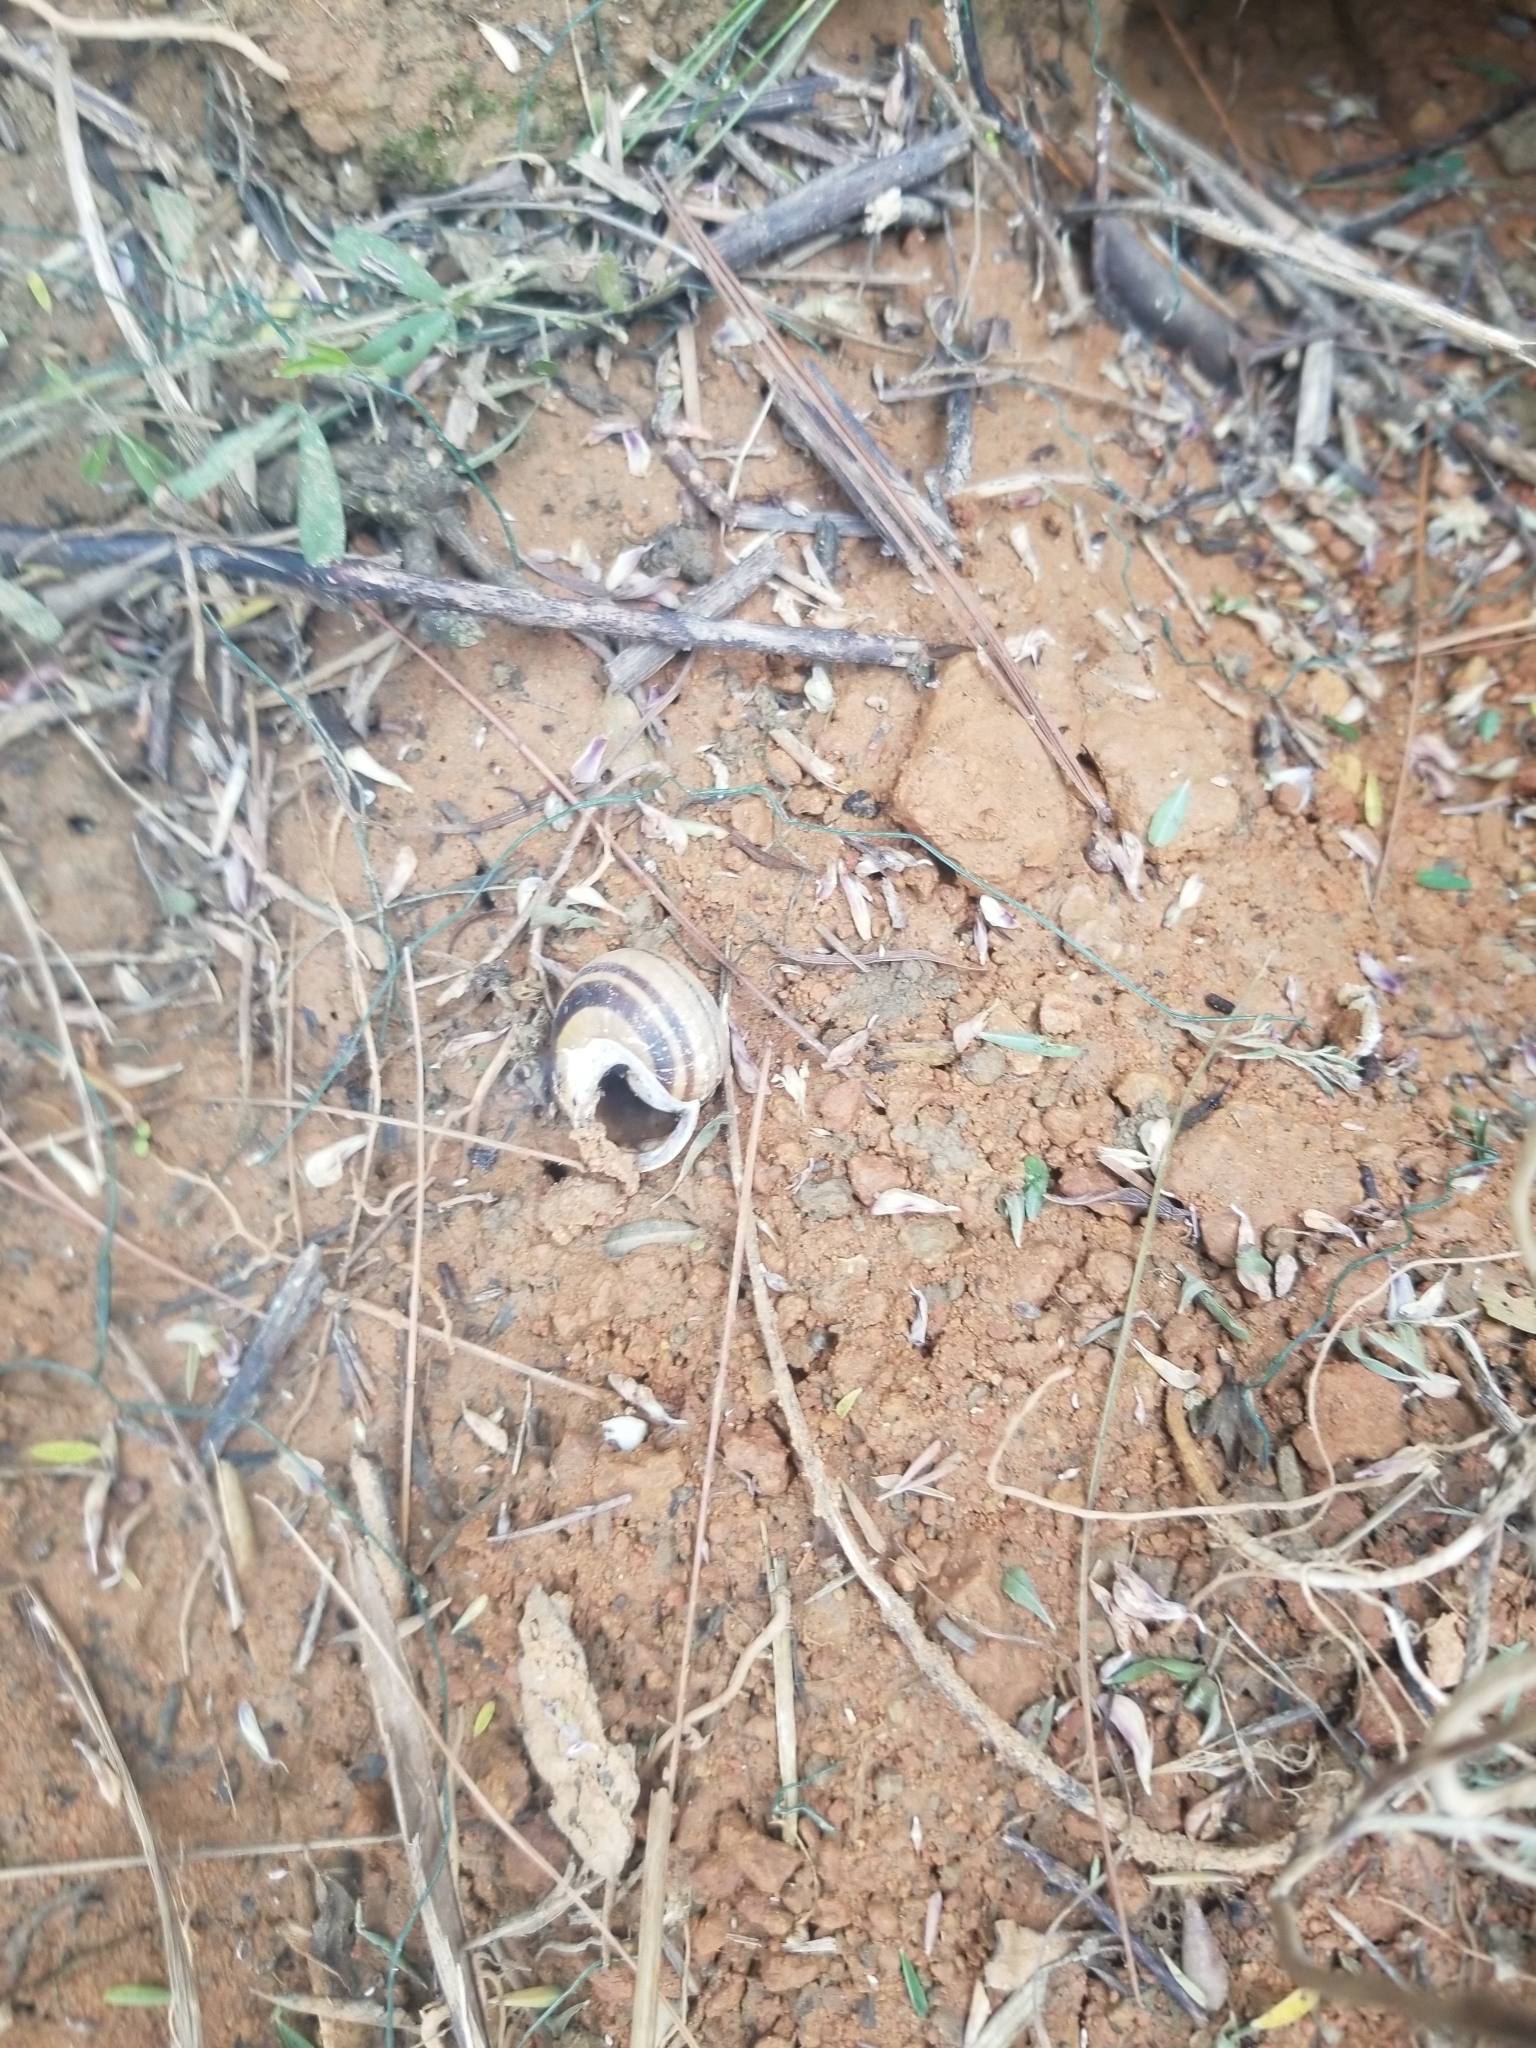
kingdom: Animalia
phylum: Mollusca
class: Gastropoda
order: Stylommatophora
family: Helicidae
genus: Cepaea
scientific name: Cepaea nemoralis
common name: Grovesnail
